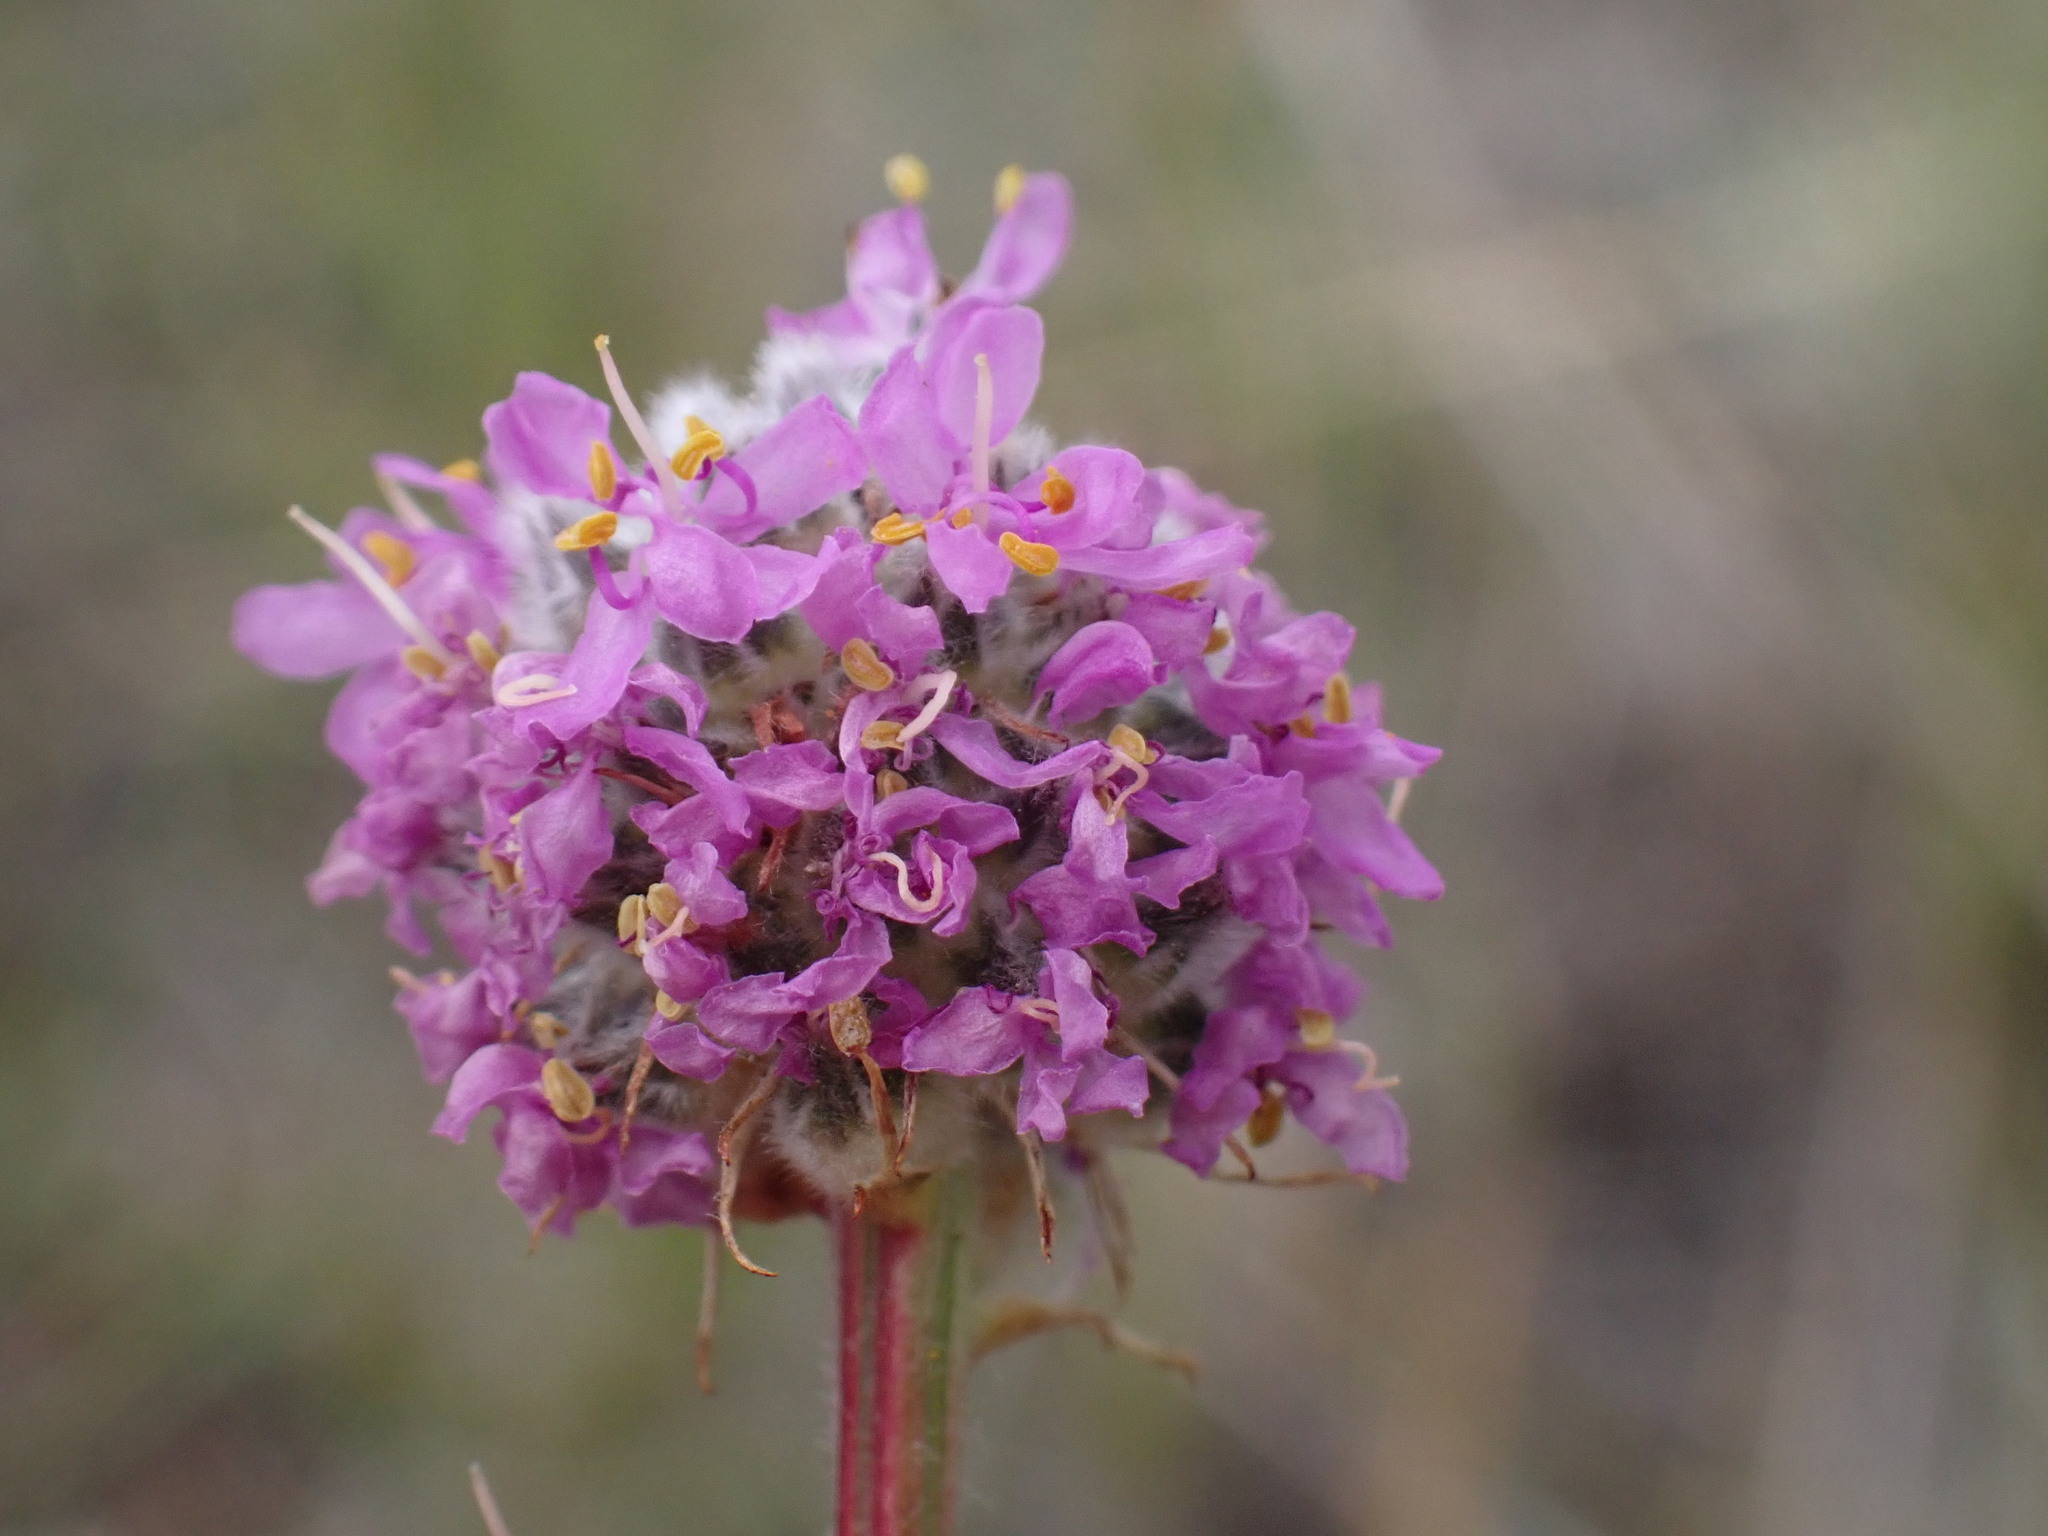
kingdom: Plantae
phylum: Tracheophyta
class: Magnoliopsida
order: Fabales
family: Fabaceae
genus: Dalea
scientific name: Dalea purpurea
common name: Purple prairie-clover
